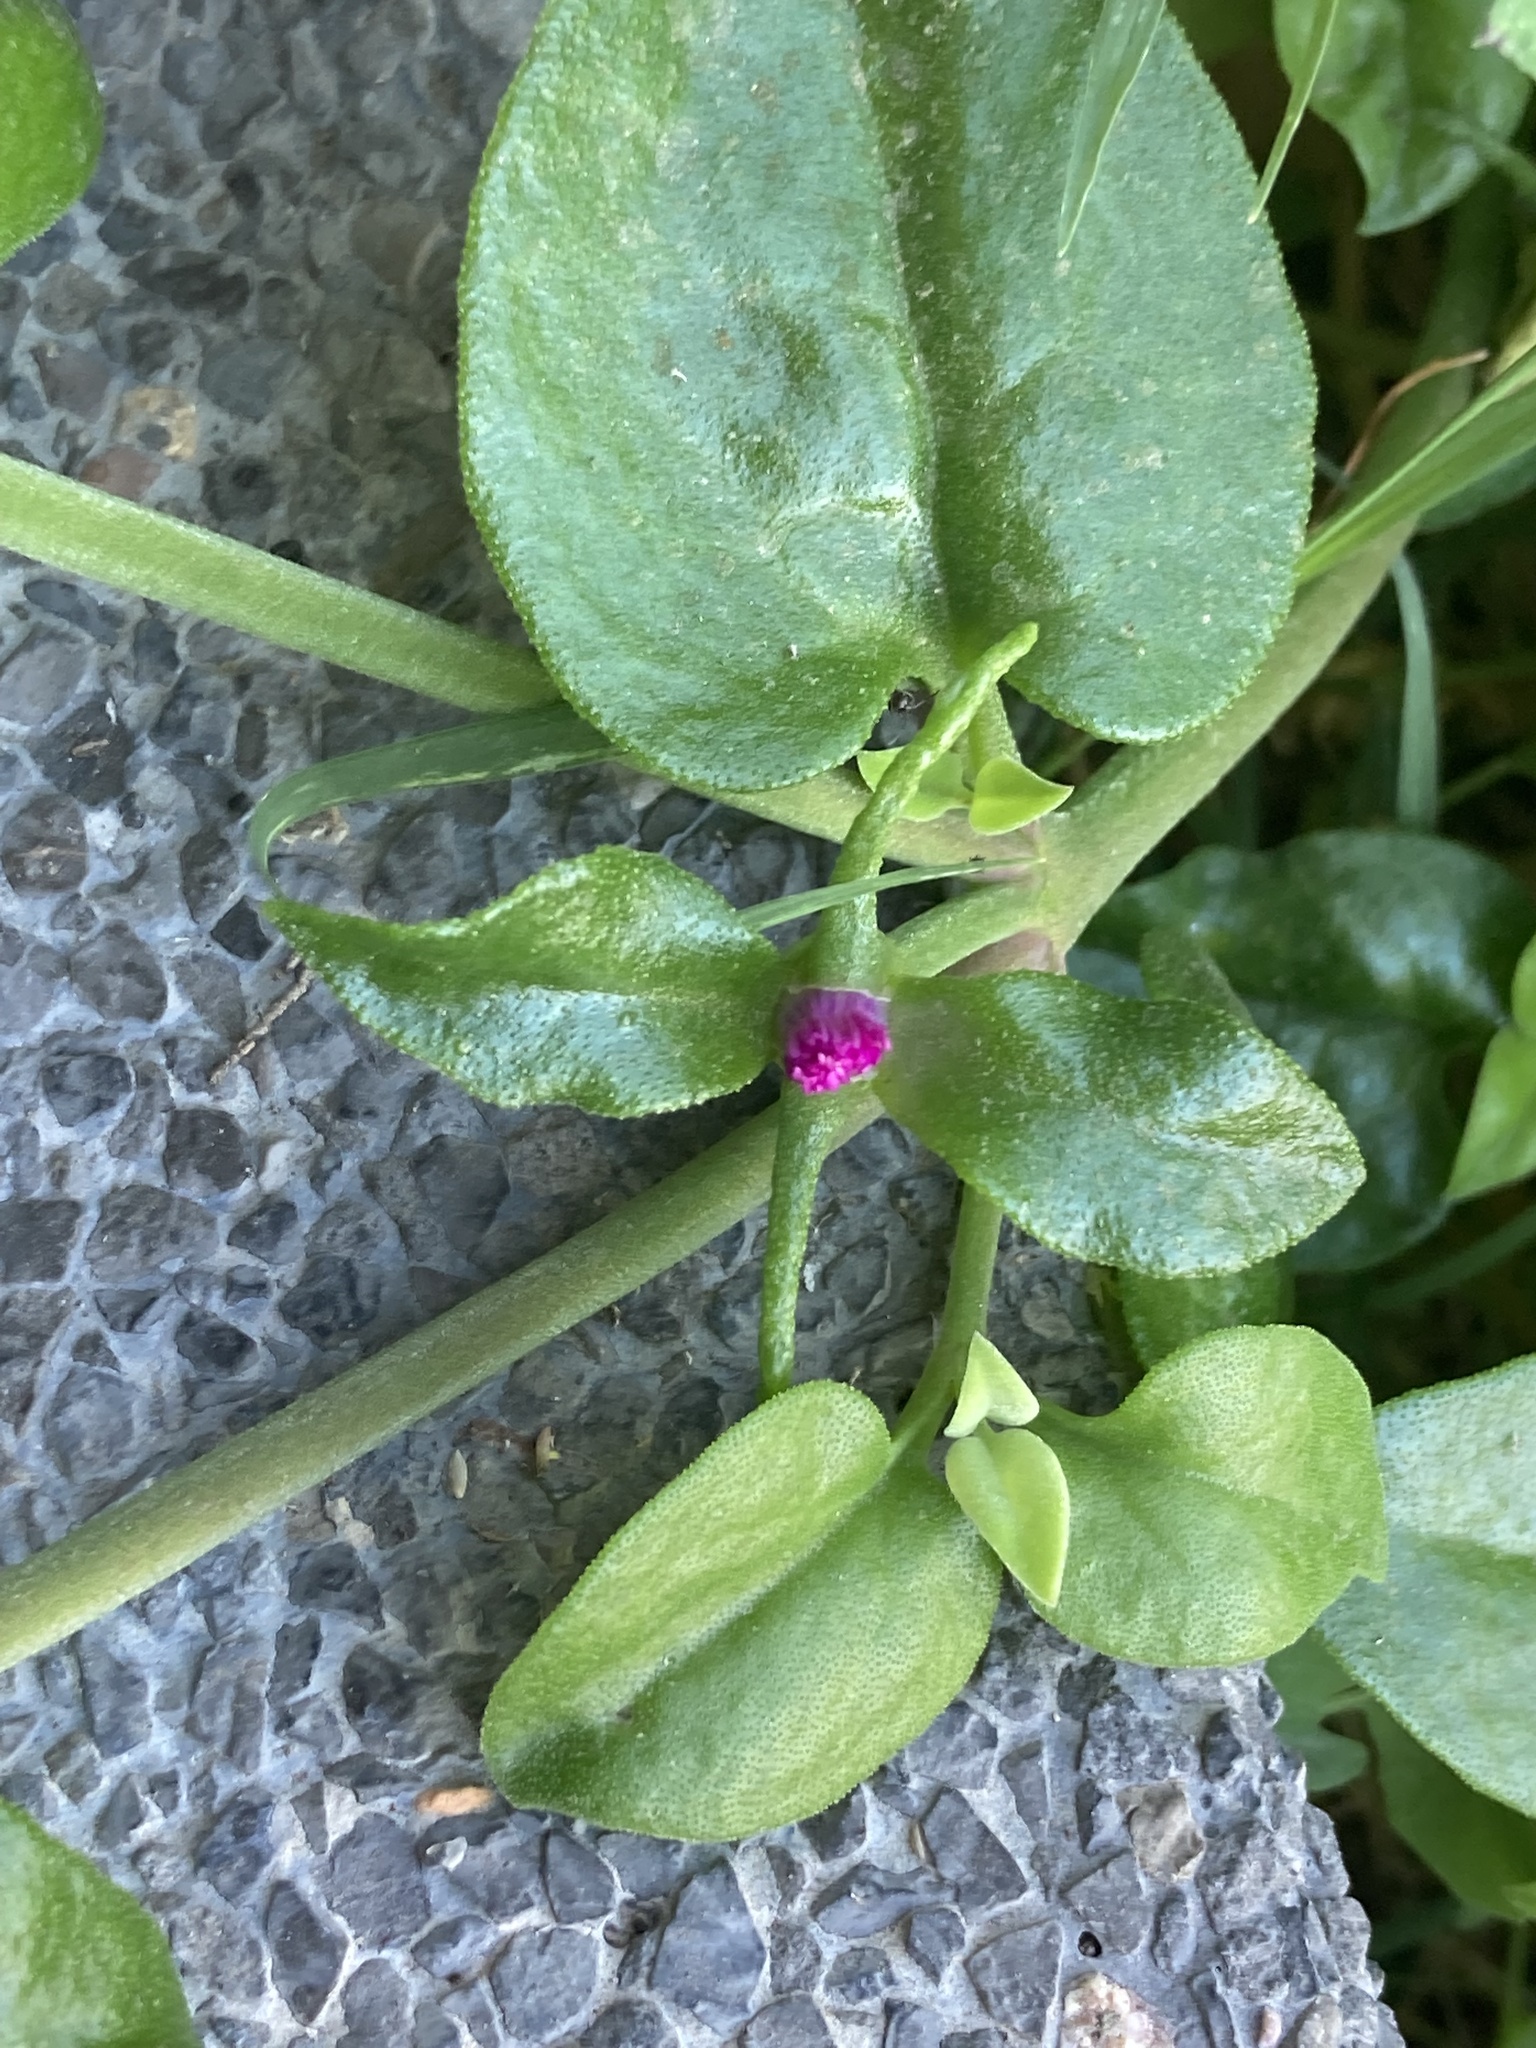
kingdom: Plantae
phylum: Tracheophyta
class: Magnoliopsida
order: Caryophyllales
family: Aizoaceae
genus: Mesembryanthemum
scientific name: Mesembryanthemum cordifolium
